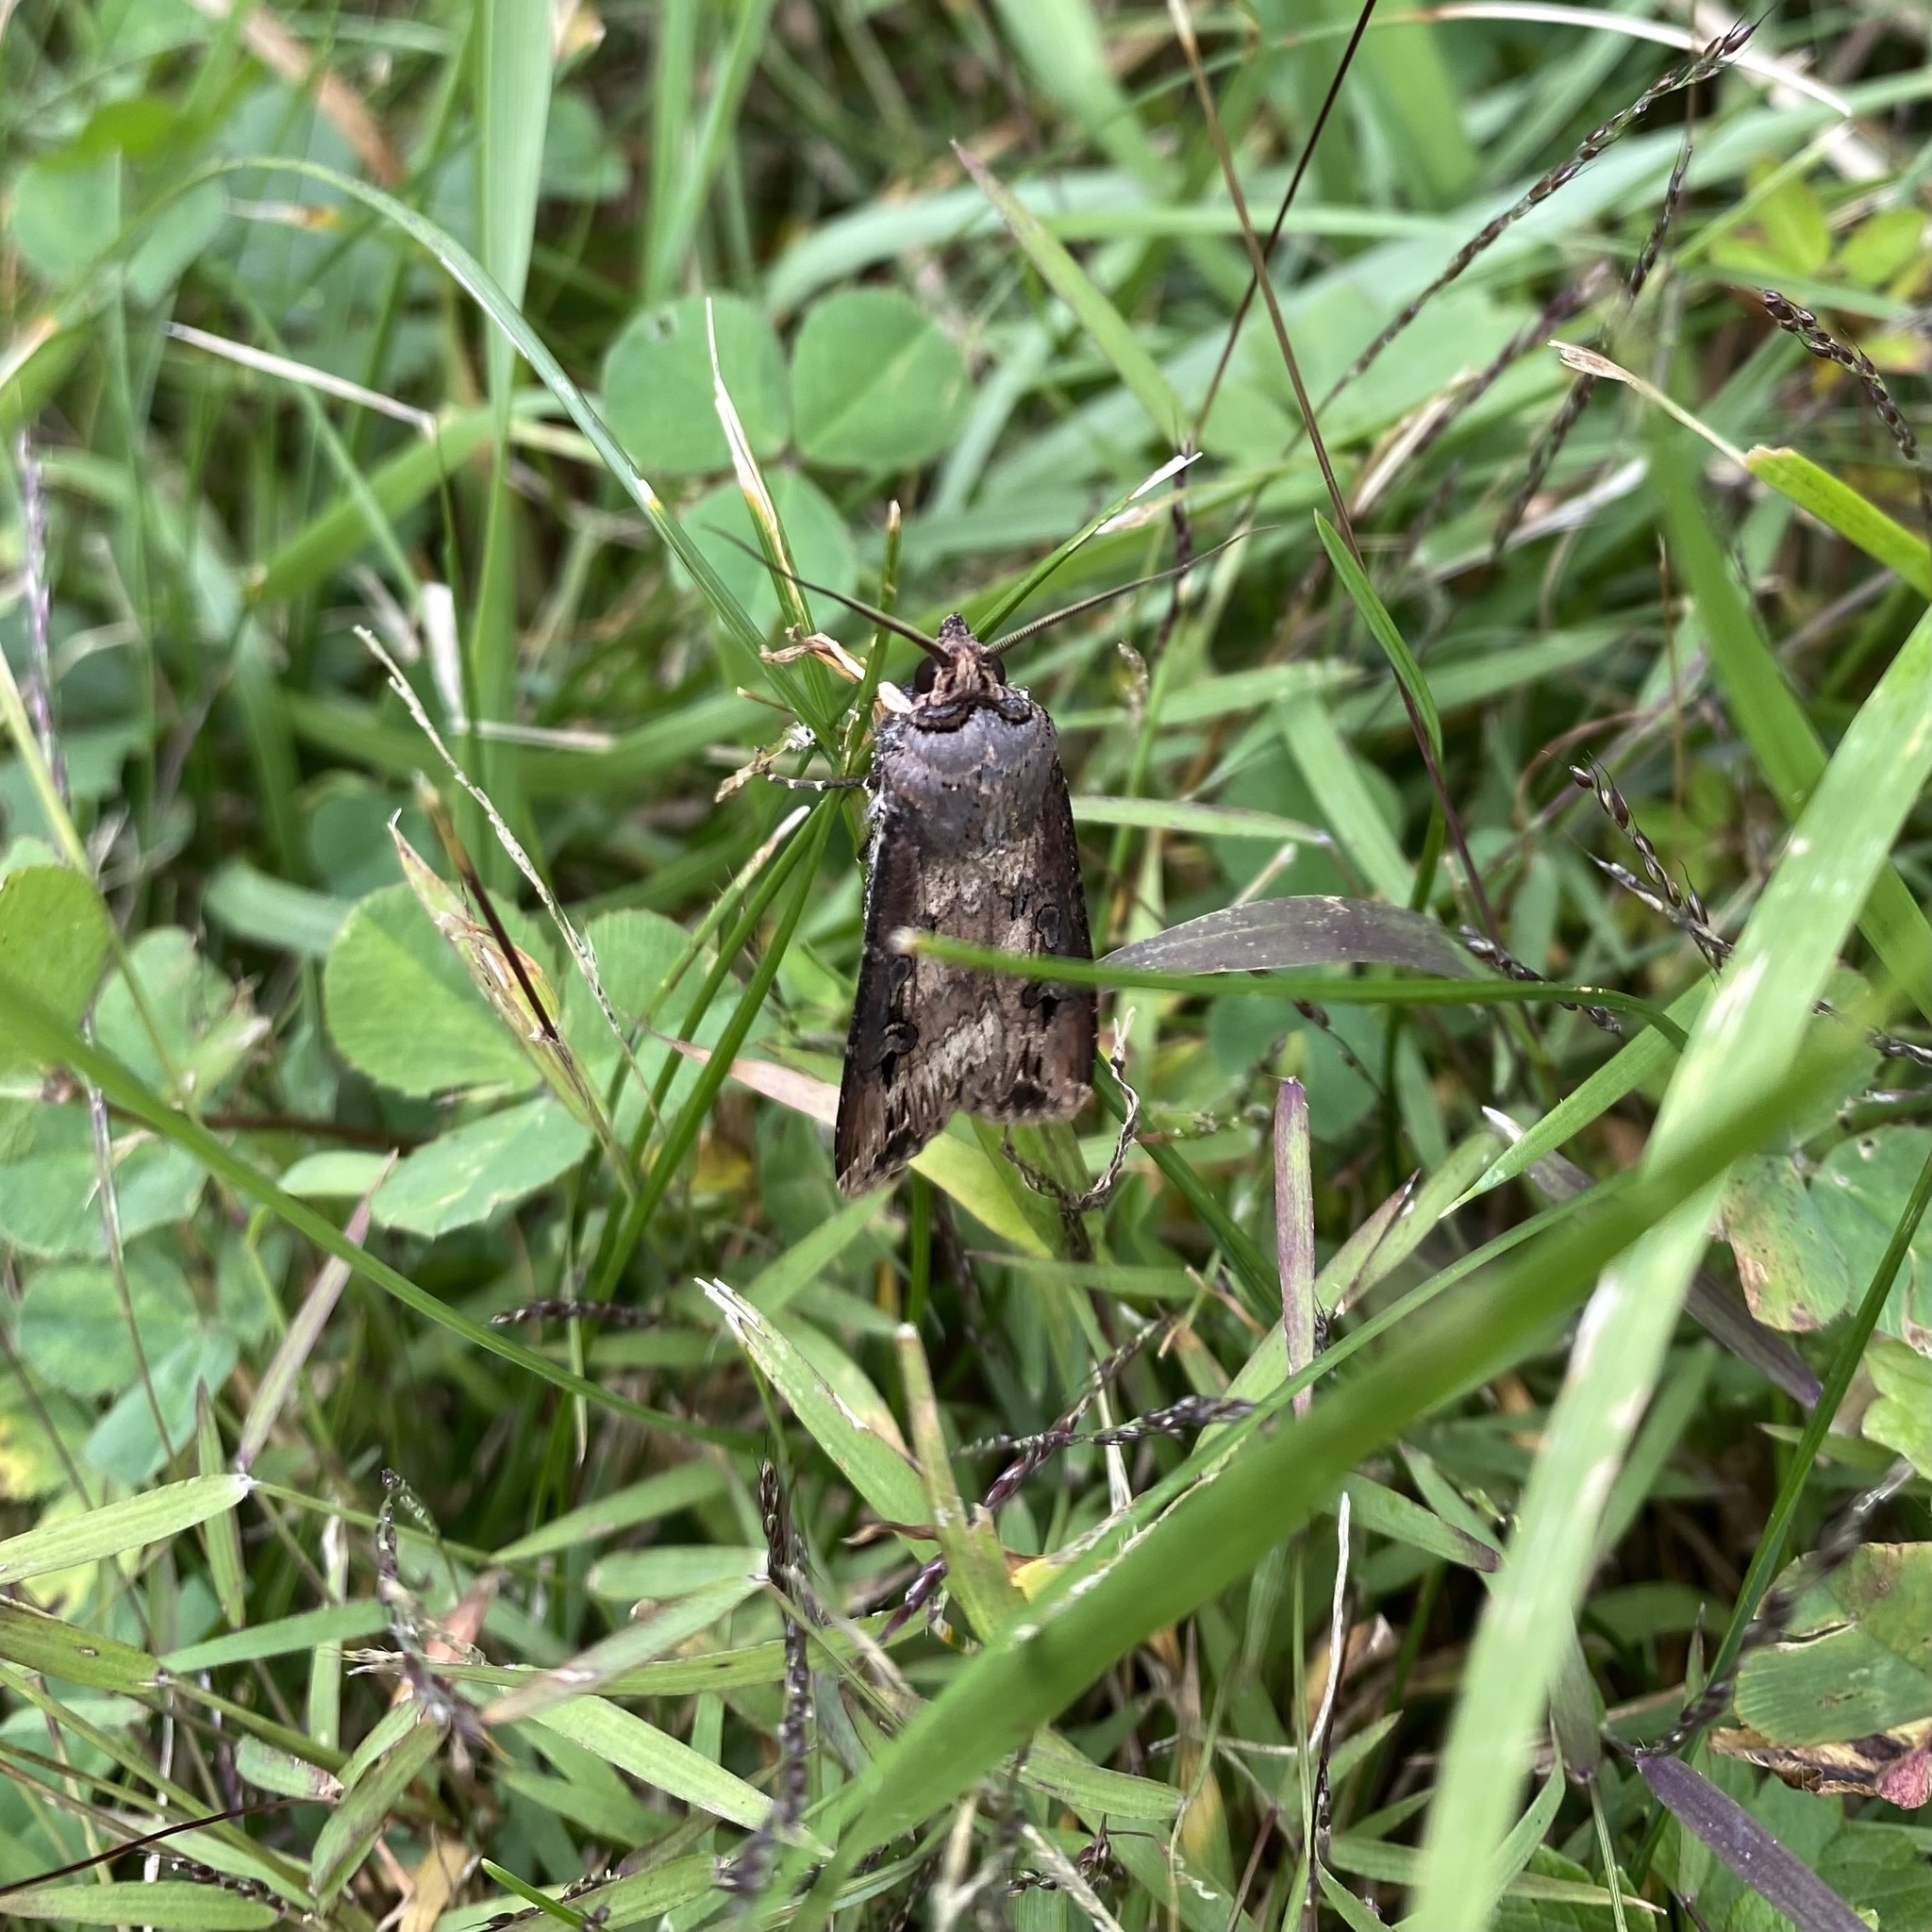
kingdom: Animalia
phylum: Arthropoda
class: Insecta
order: Lepidoptera
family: Noctuidae
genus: Agrotis
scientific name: Agrotis ipsilon
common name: Dark sword-grass
